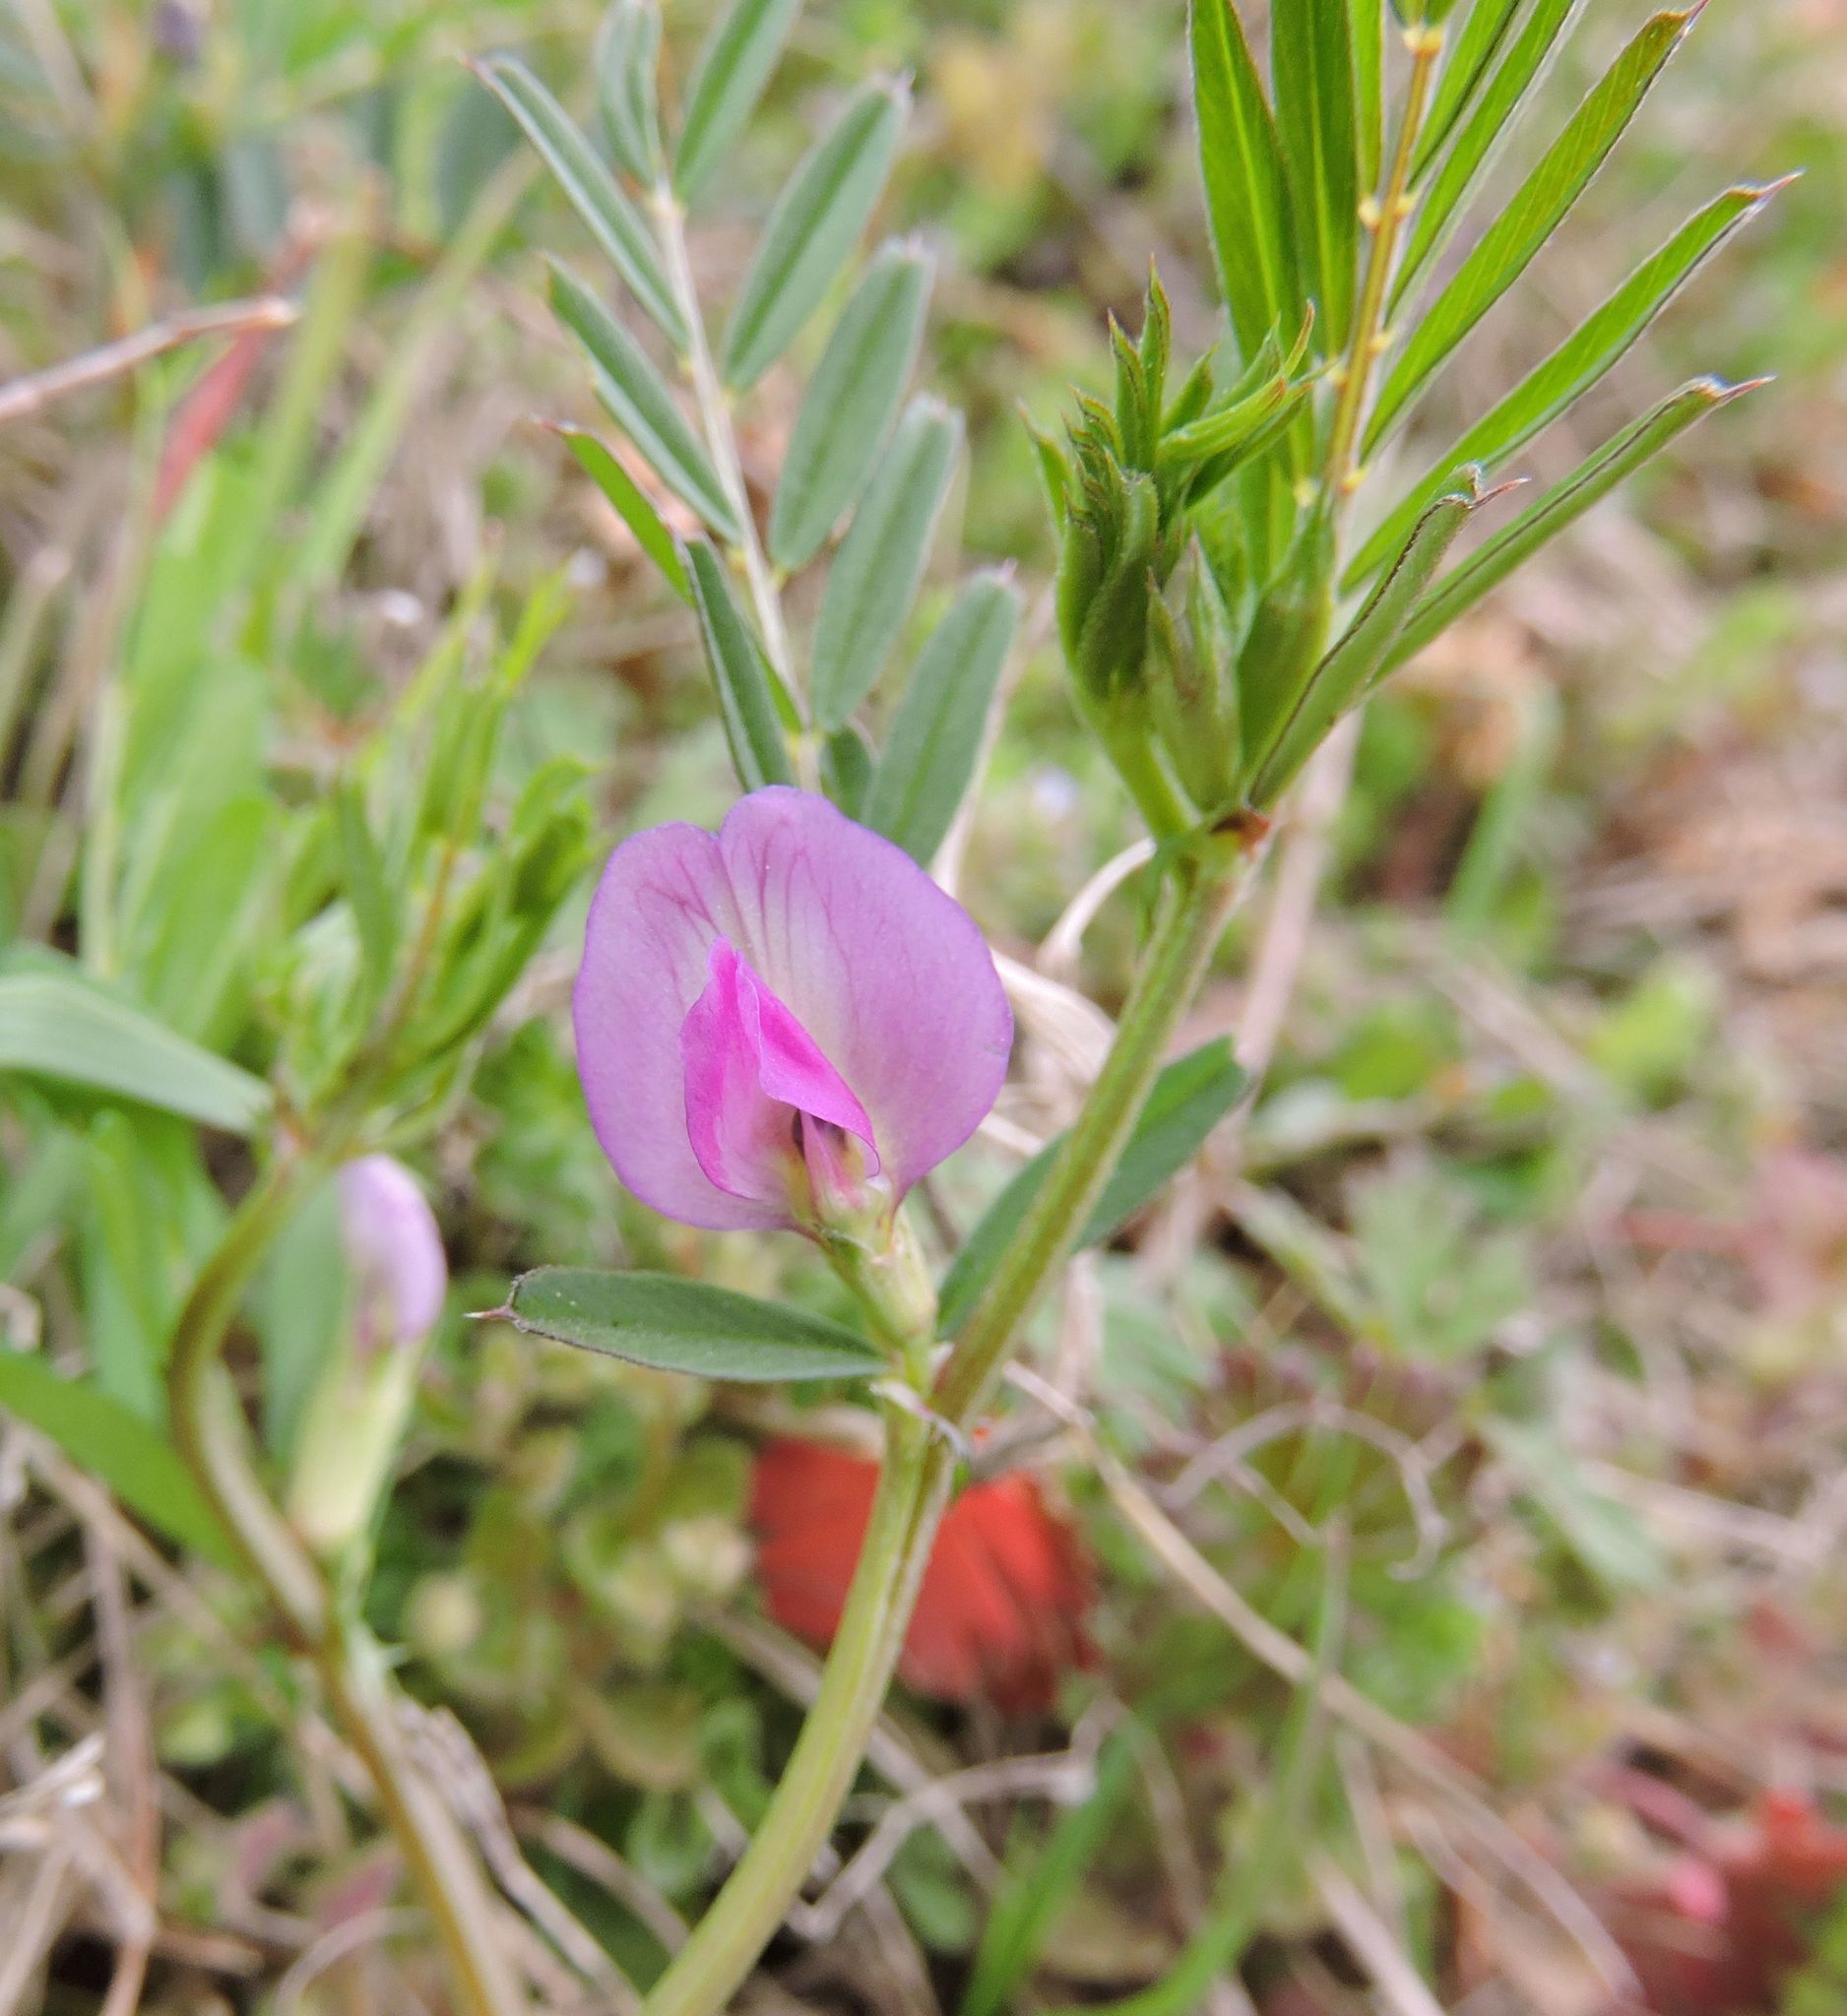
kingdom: Plantae
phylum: Tracheophyta
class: Magnoliopsida
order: Fabales
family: Fabaceae
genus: Vicia
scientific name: Vicia sativa
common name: Garden vetch
